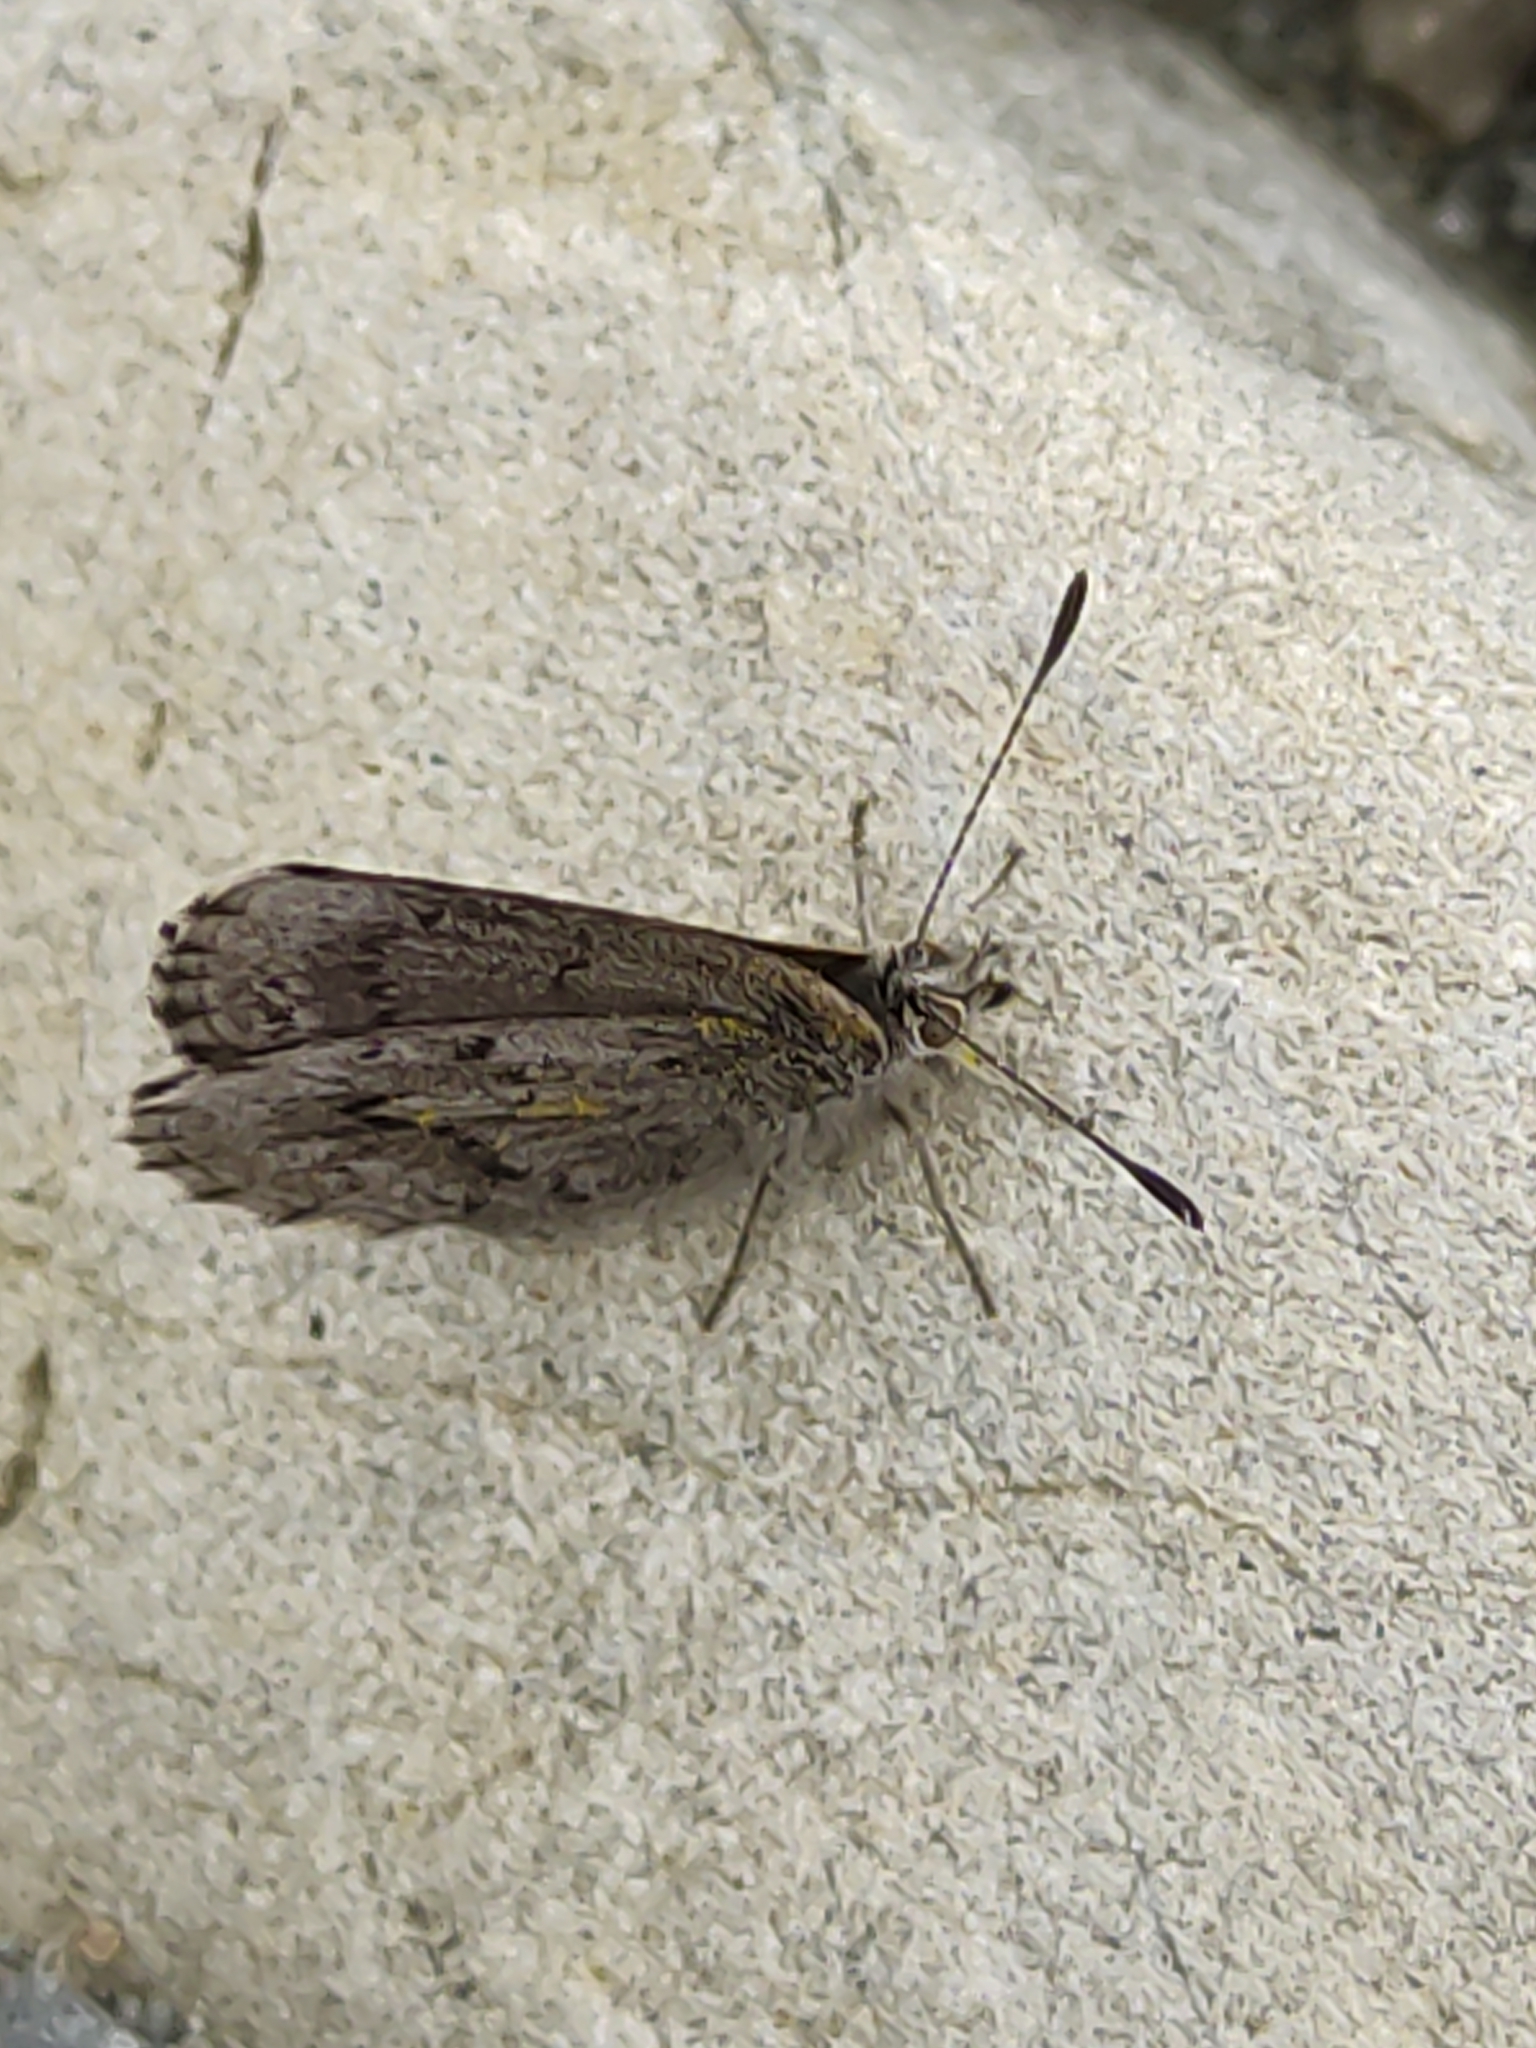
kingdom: Animalia
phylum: Arthropoda
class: Insecta
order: Lepidoptera
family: Lycaenidae
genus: Zizina
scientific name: Zizina oxleyi
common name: Southern blue
